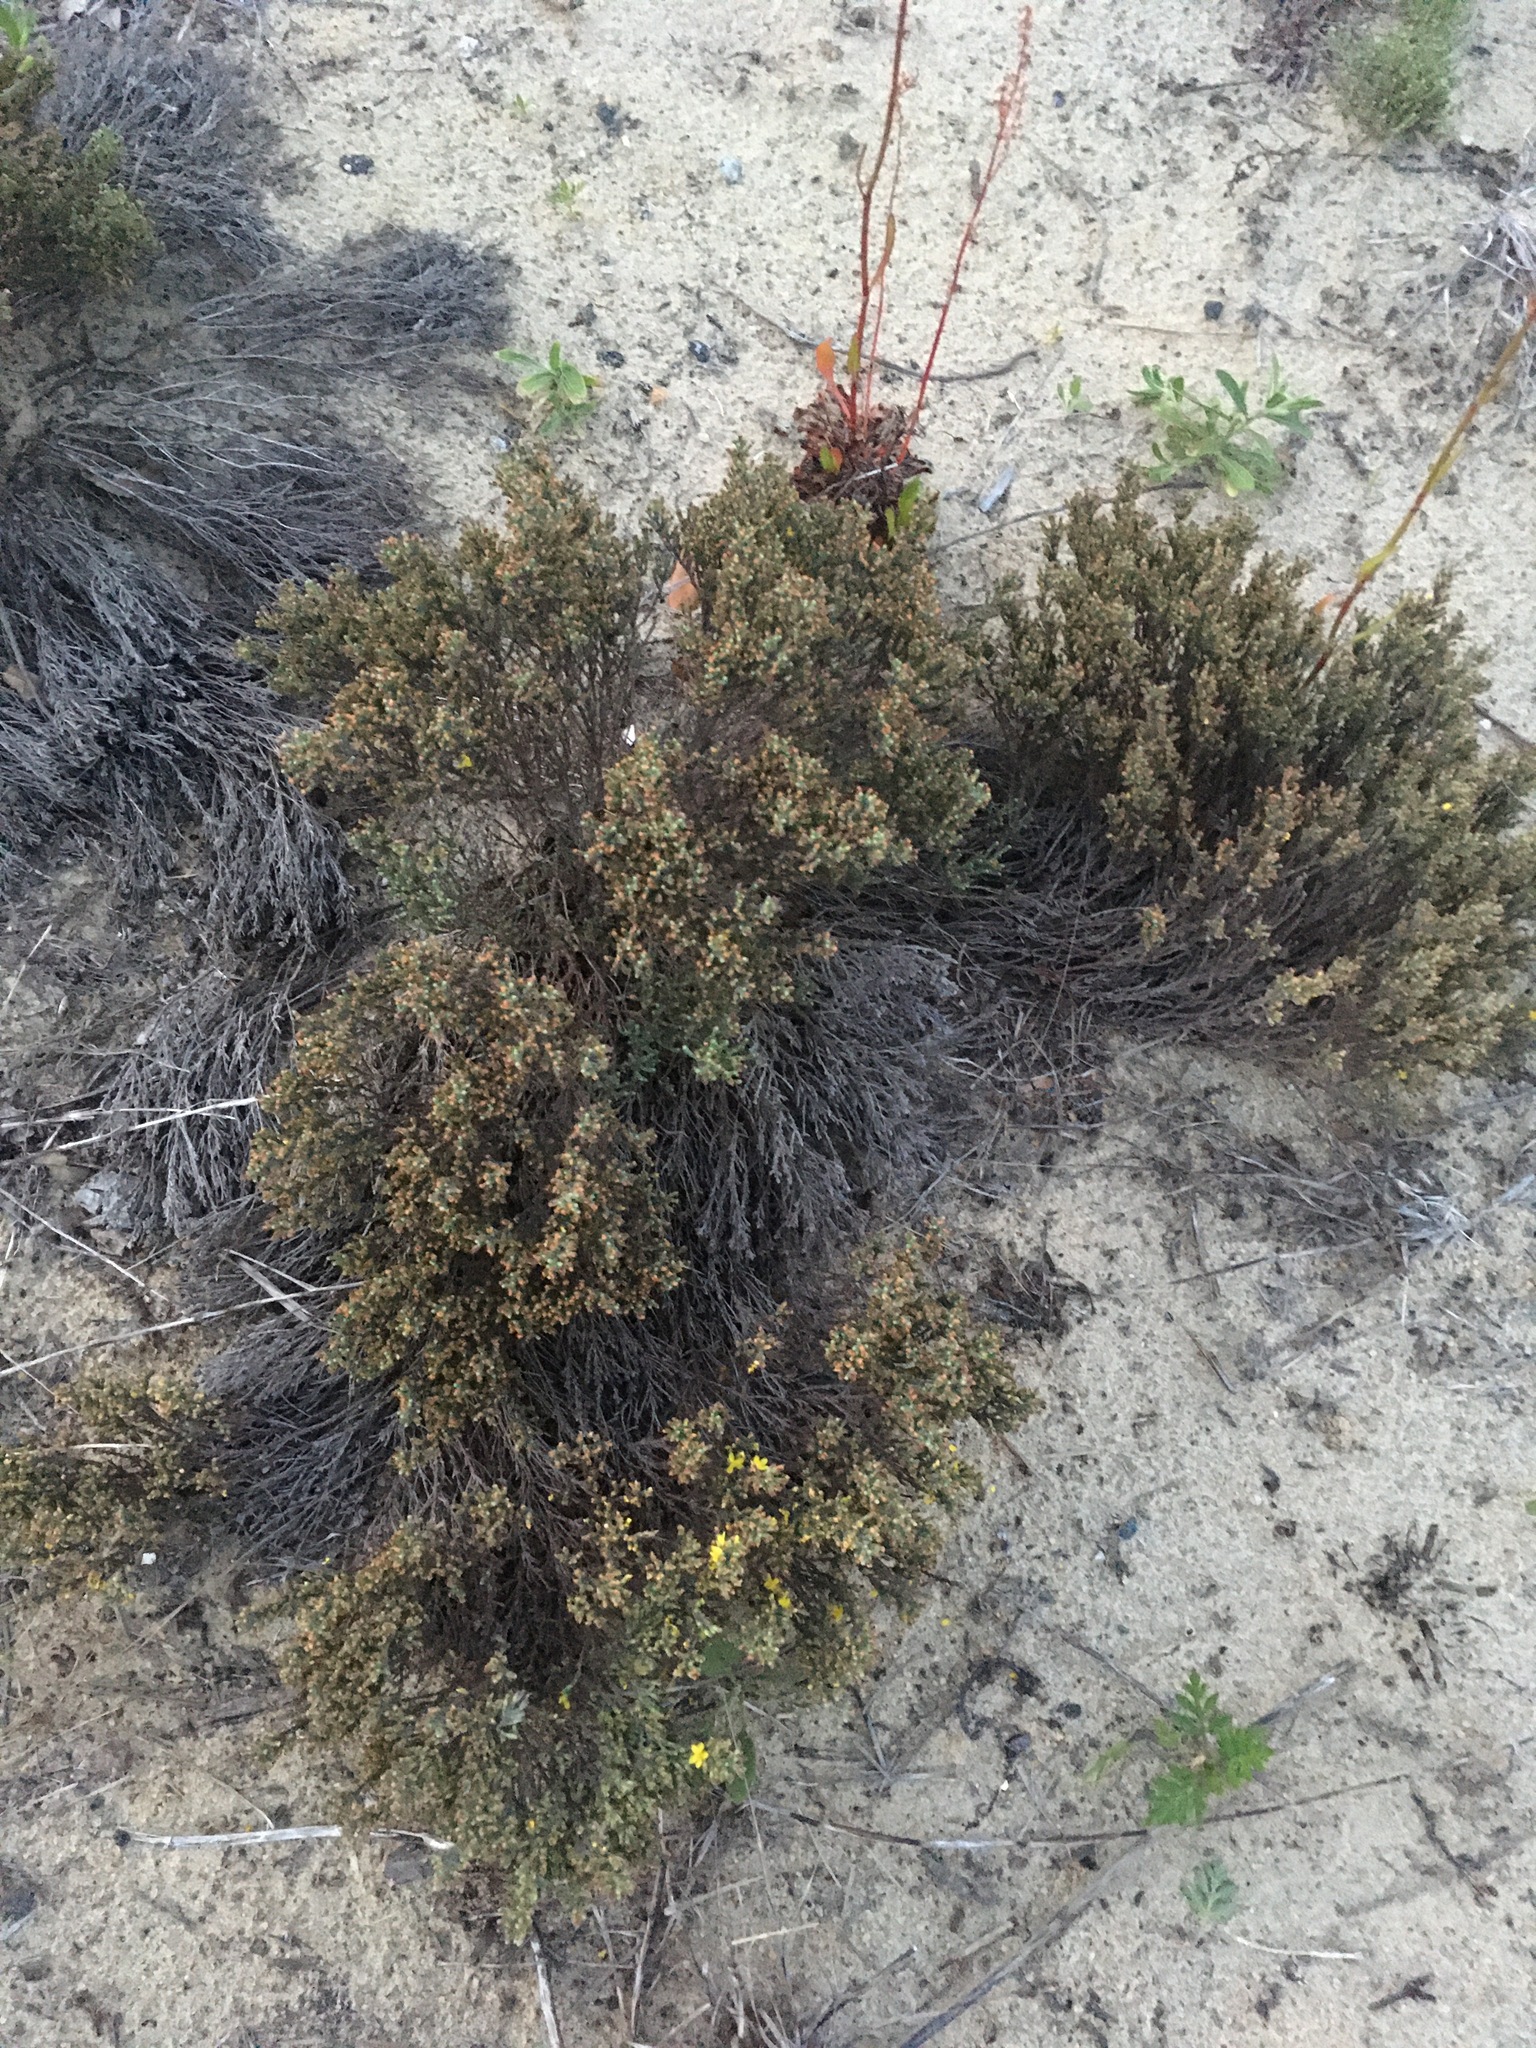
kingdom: Plantae
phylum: Tracheophyta
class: Magnoliopsida
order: Malvales
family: Cistaceae
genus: Hudsonia
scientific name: Hudsonia tomentosa
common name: Beach-heath
